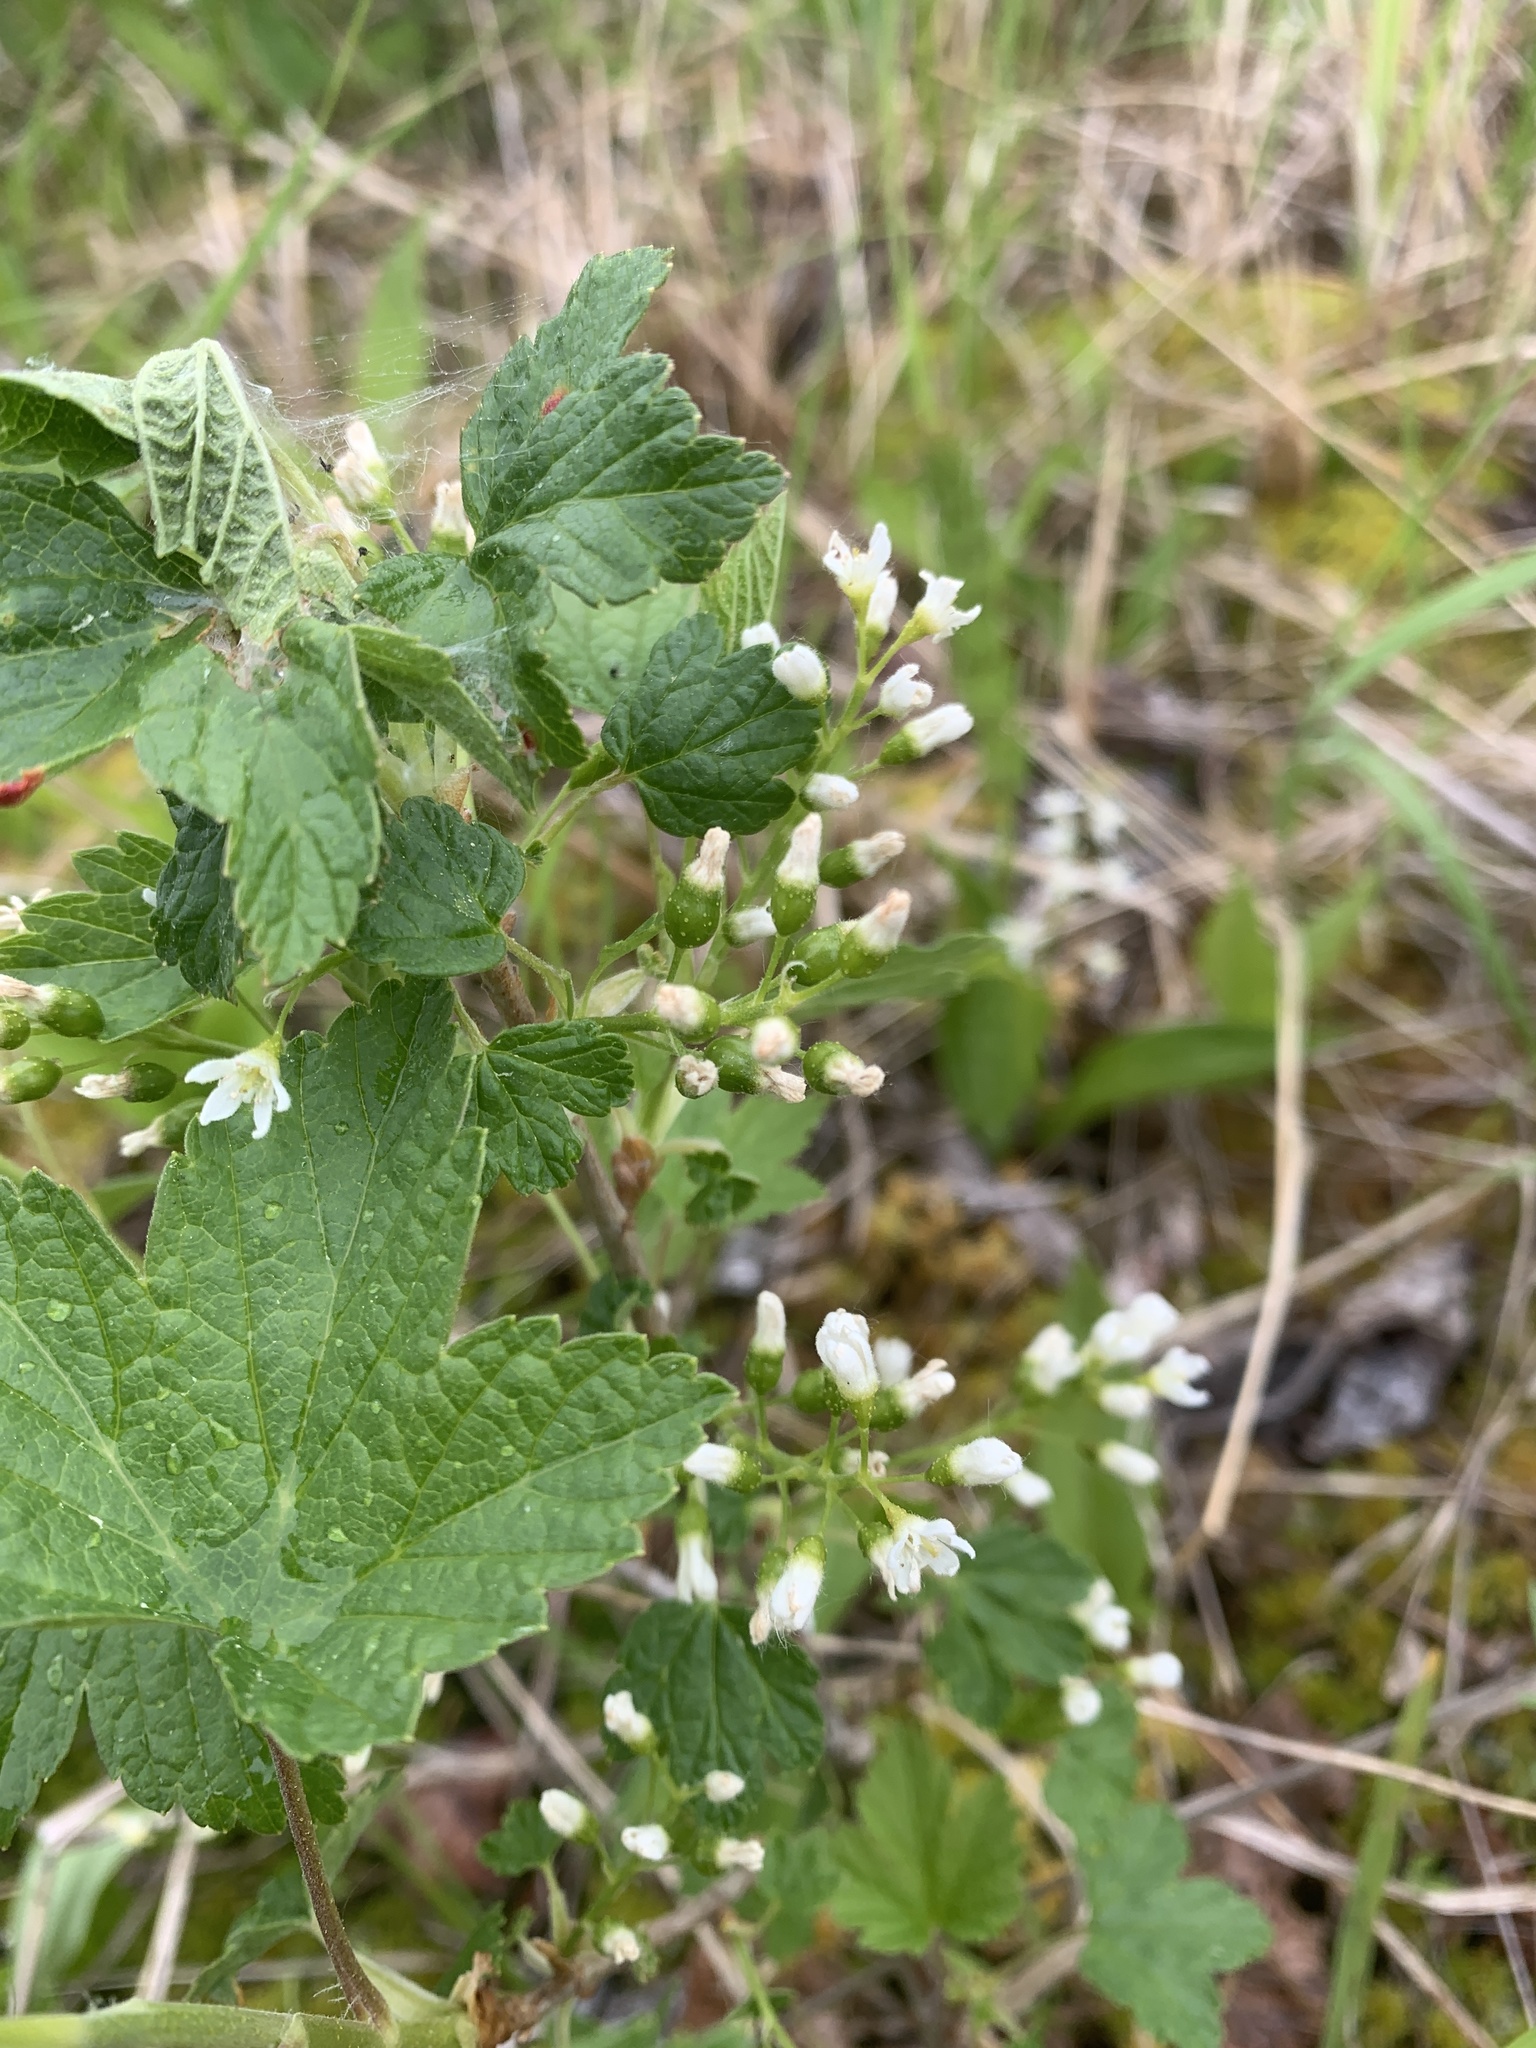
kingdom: Plantae
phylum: Tracheophyta
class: Magnoliopsida
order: Saxifragales
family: Grossulariaceae
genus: Ribes
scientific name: Ribes hudsonianum
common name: Northern black currant
